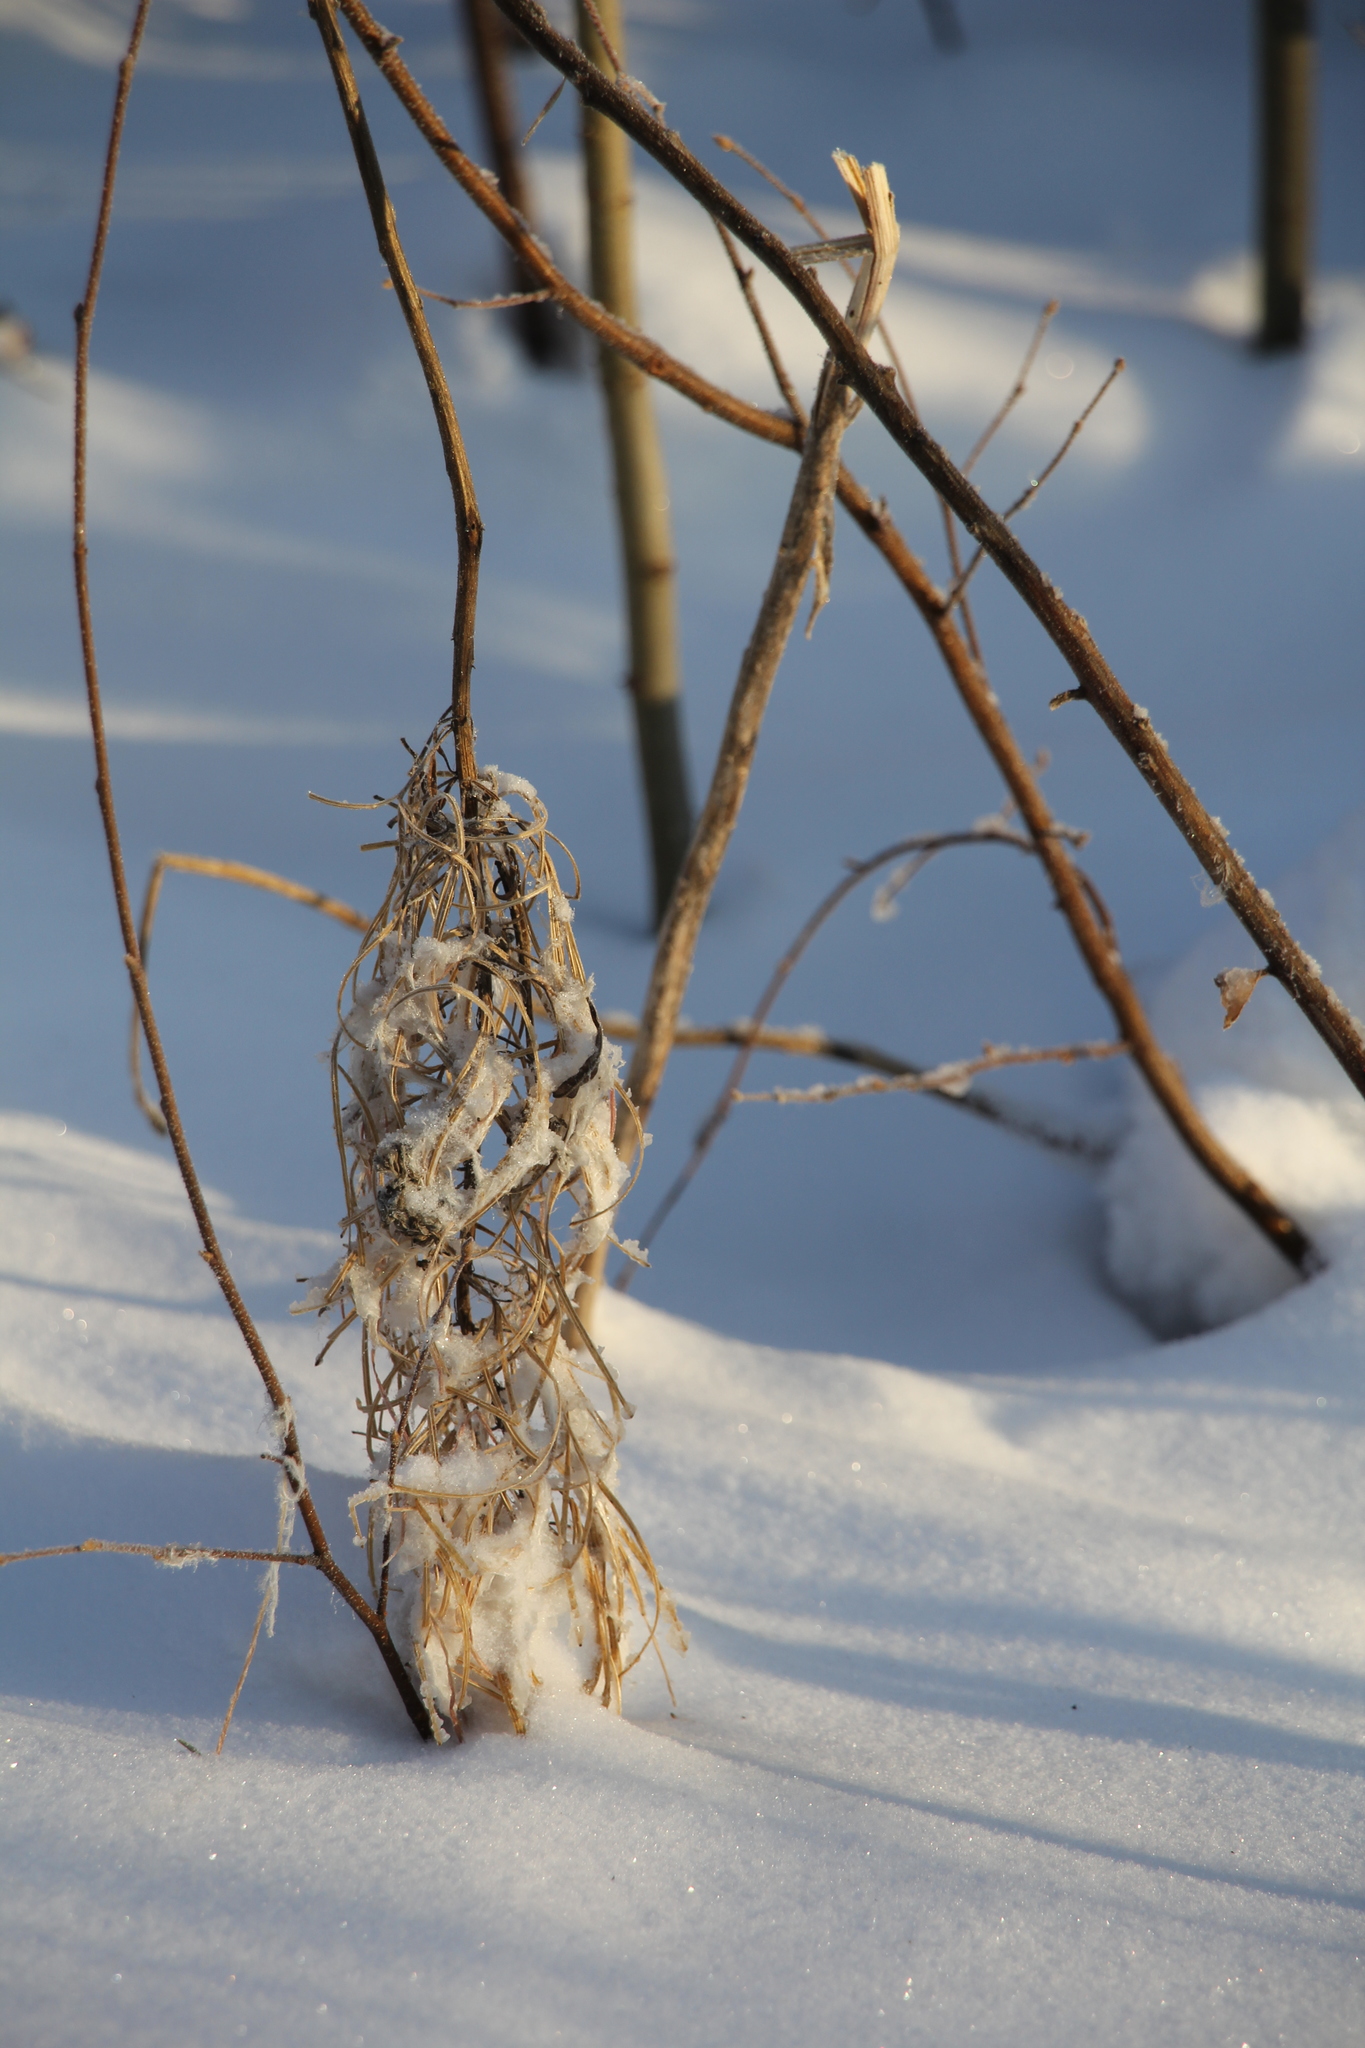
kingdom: Plantae
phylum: Tracheophyta
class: Magnoliopsida
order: Myrtales
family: Onagraceae
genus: Chamaenerion
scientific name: Chamaenerion angustifolium
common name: Fireweed
